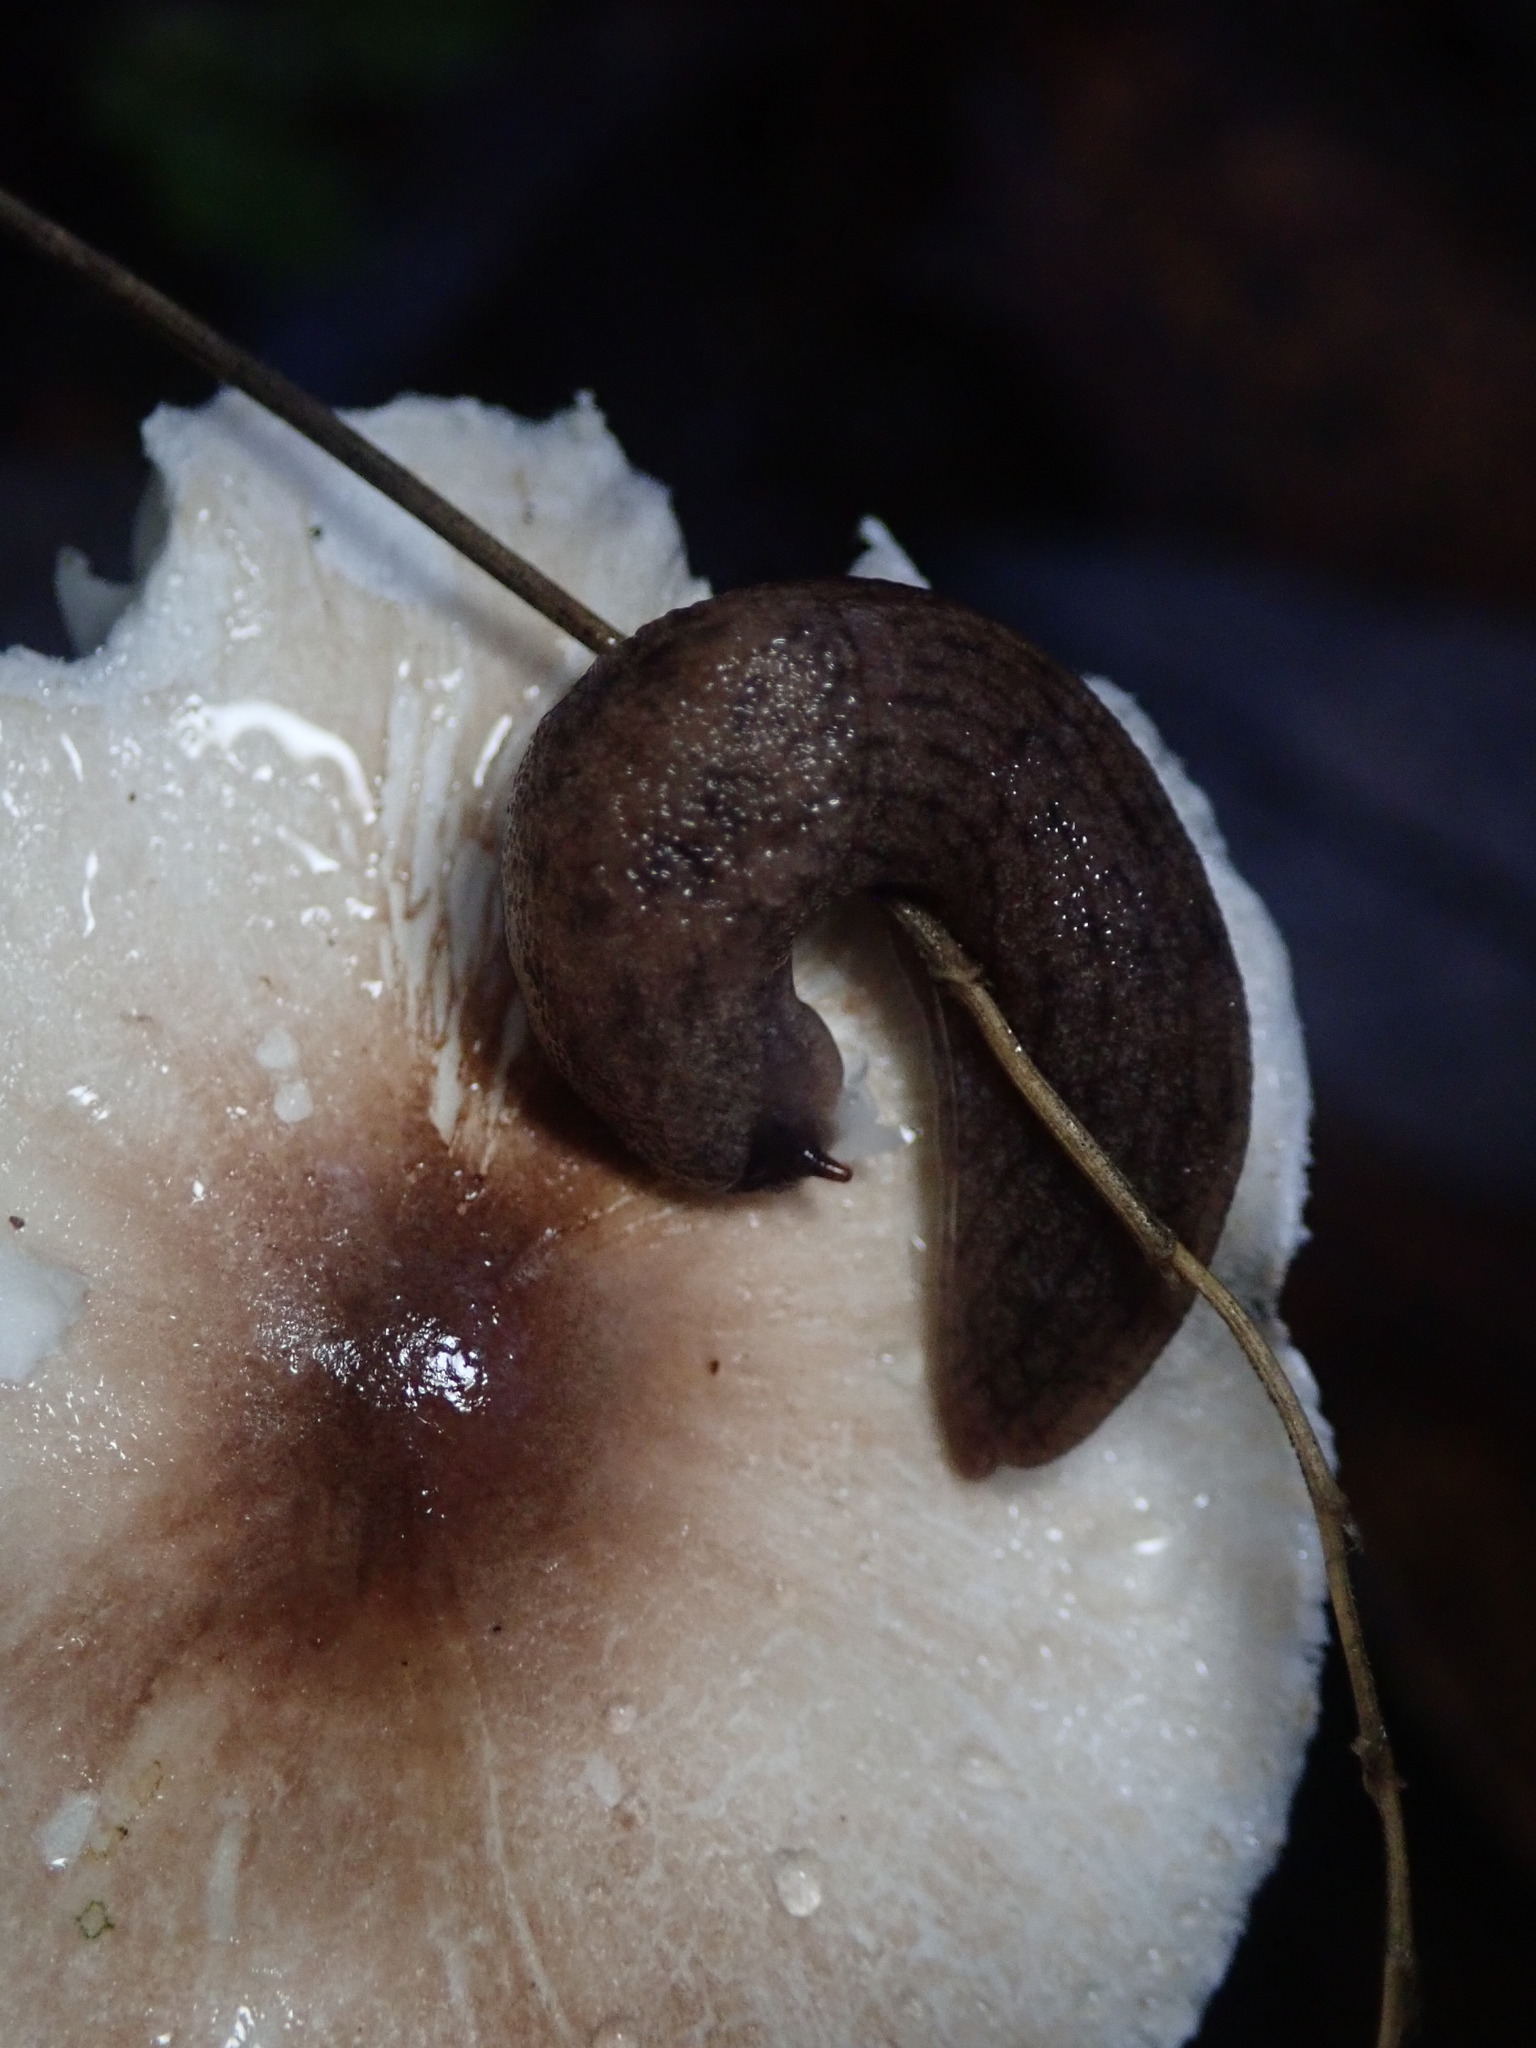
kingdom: Animalia
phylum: Mollusca
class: Gastropoda
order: Stylommatophora
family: Ariolimacidae
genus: Hesperarion
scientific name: Hesperarion niger
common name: Black western slug
